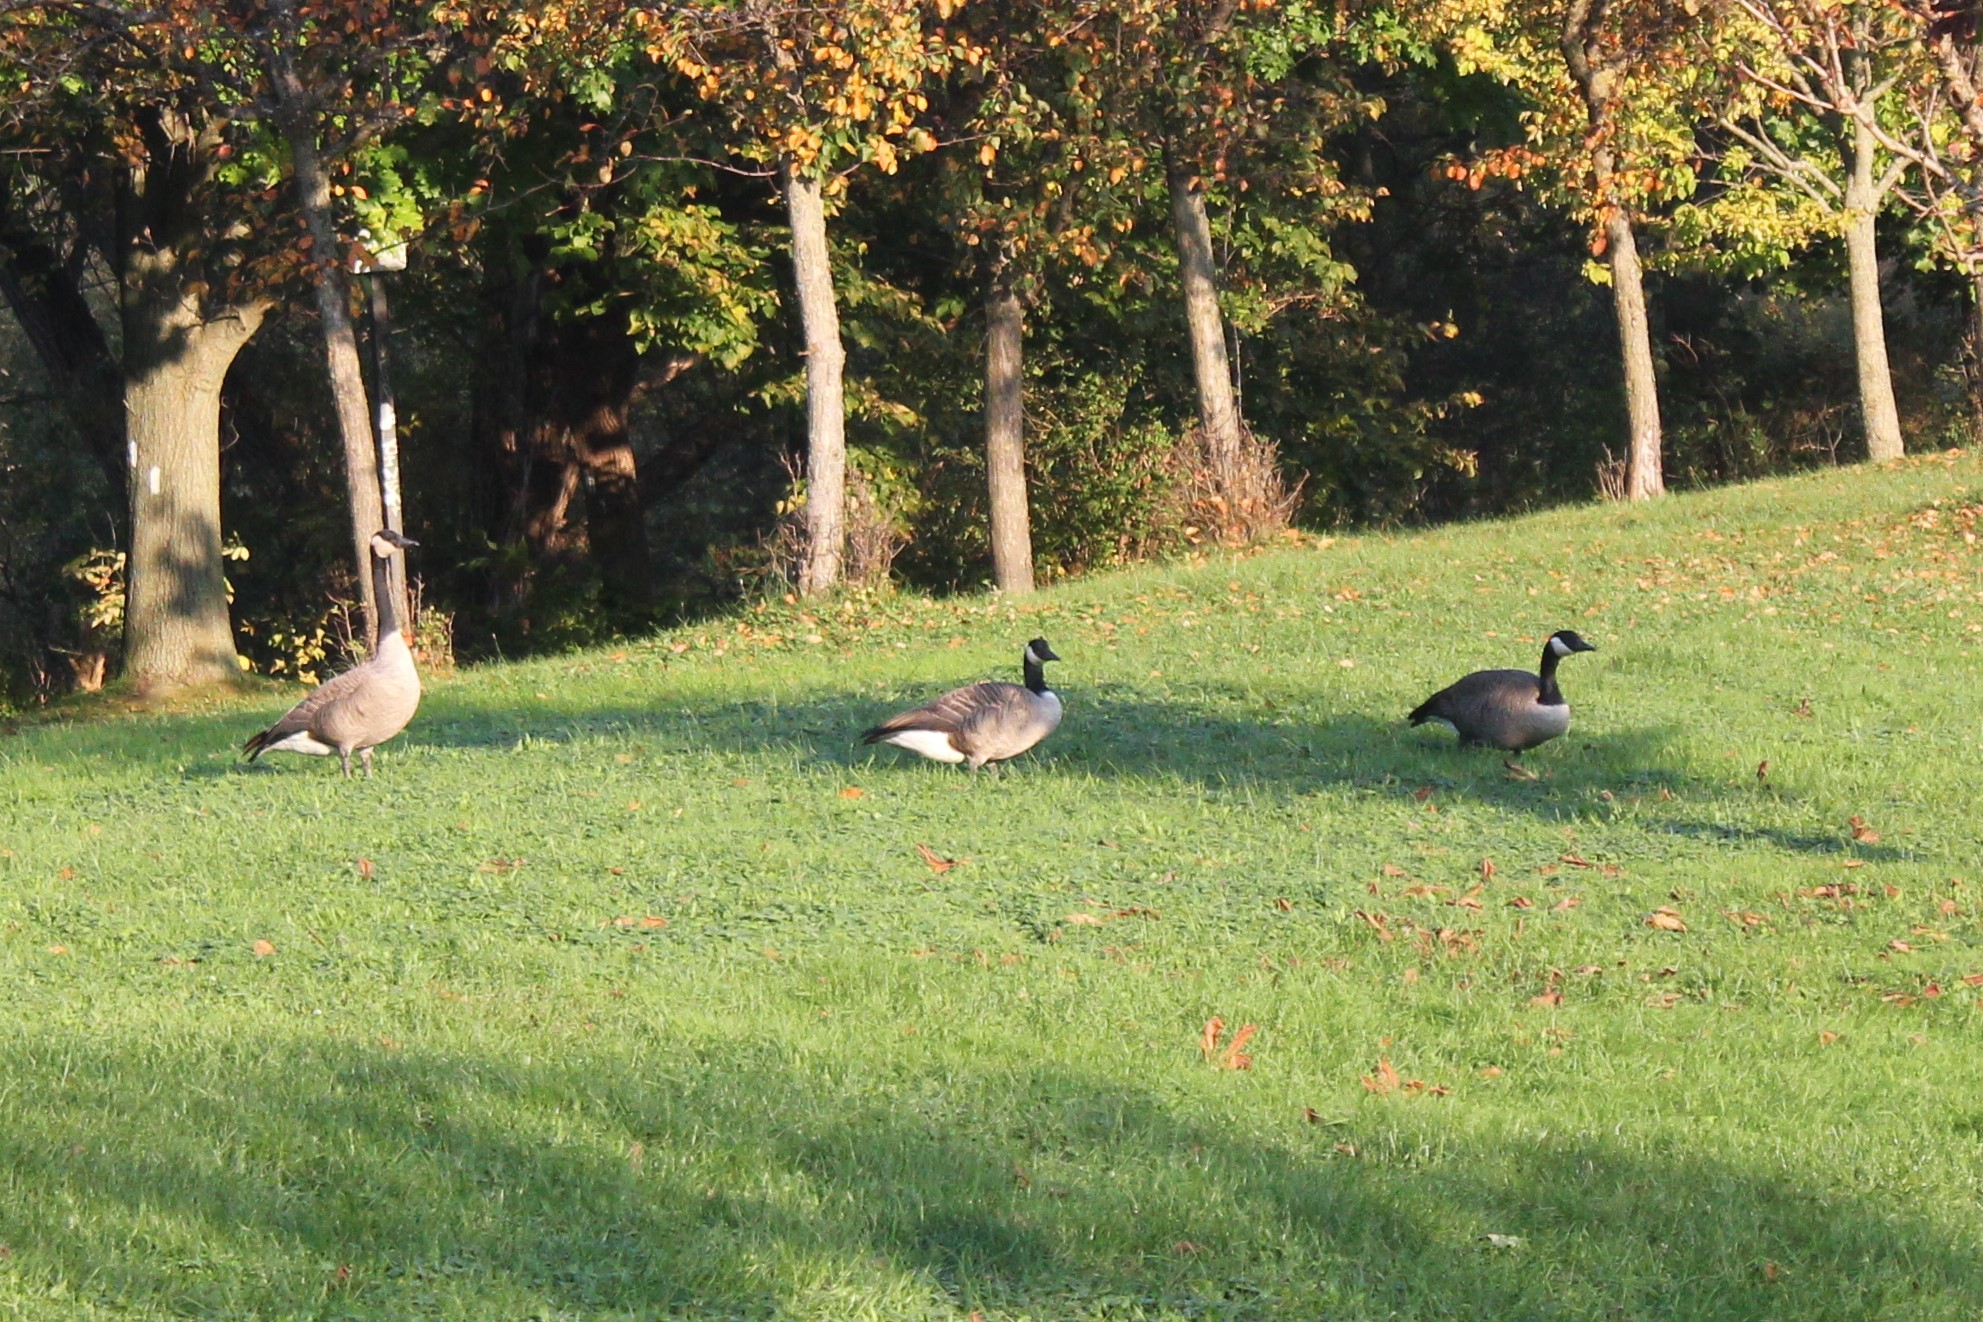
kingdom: Animalia
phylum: Chordata
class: Aves
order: Anseriformes
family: Anatidae
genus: Branta
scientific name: Branta canadensis
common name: Canada goose
